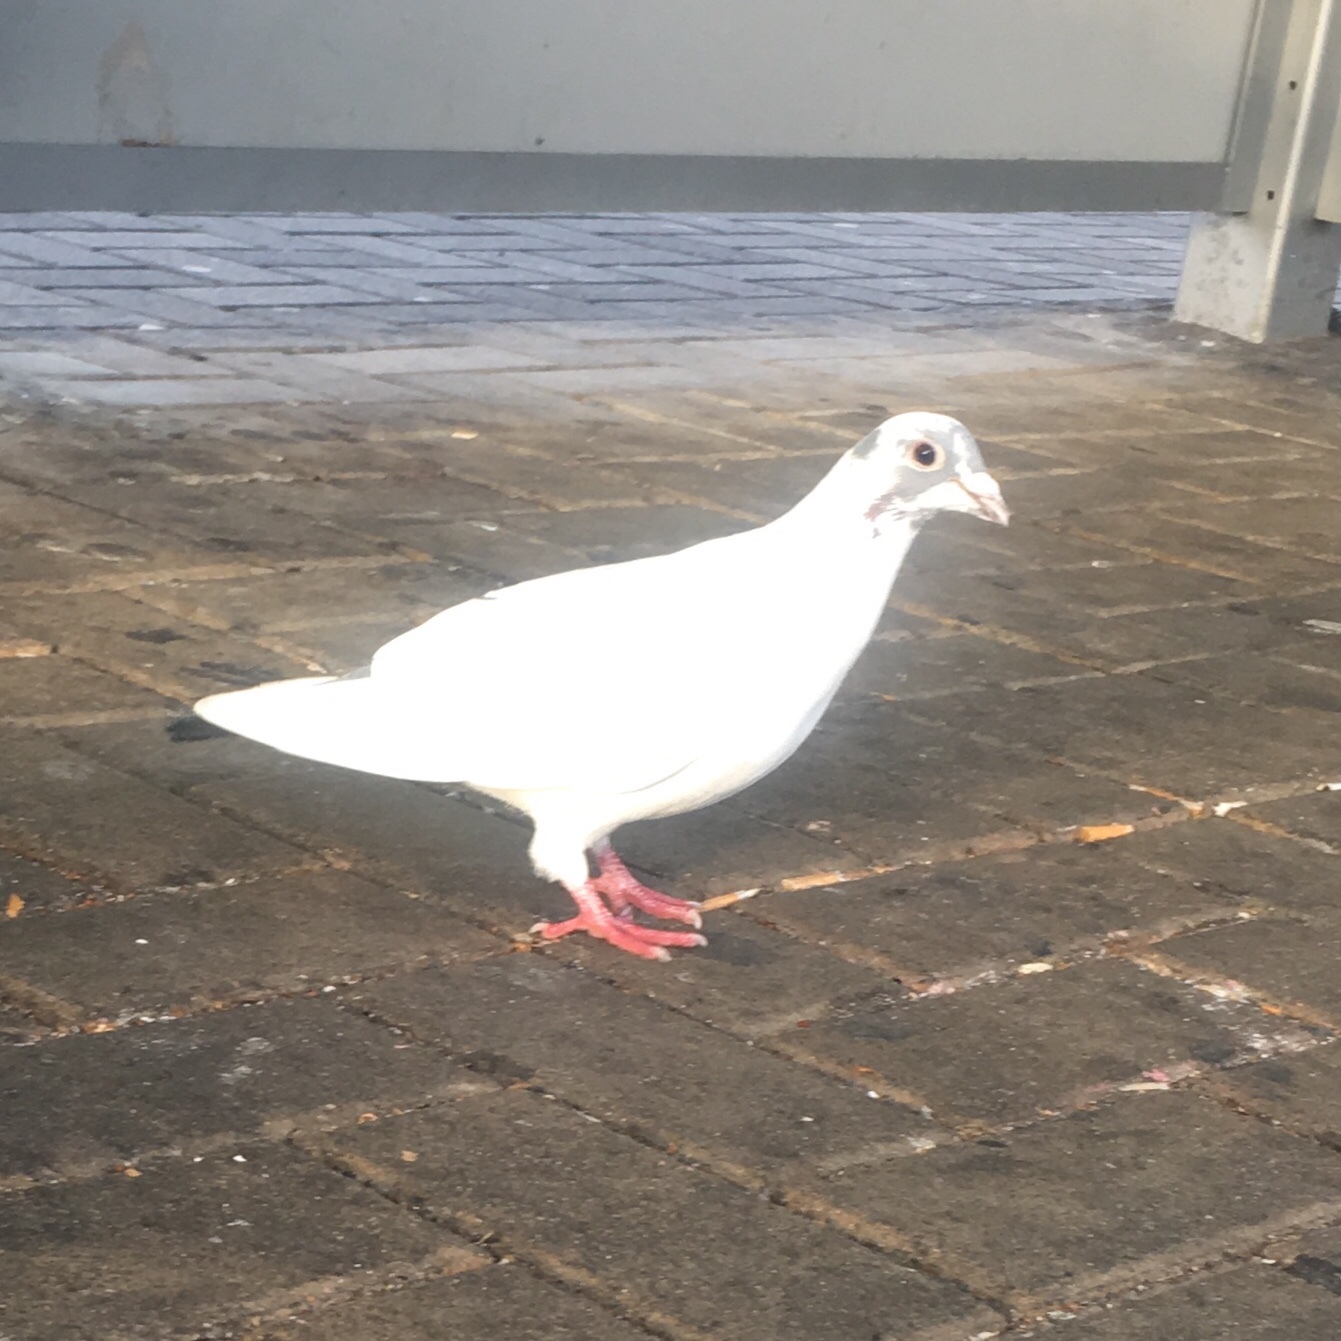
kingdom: Animalia
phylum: Chordata
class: Aves
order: Columbiformes
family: Columbidae
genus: Columba
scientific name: Columba livia
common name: Rock pigeon
